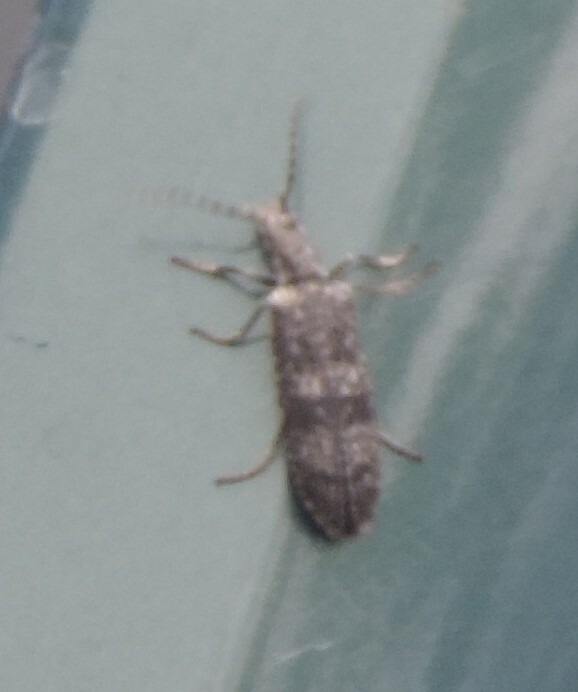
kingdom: Animalia
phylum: Arthropoda
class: Insecta
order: Coleoptera
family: Cupedidae
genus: Priacma
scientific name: Priacma serrata
